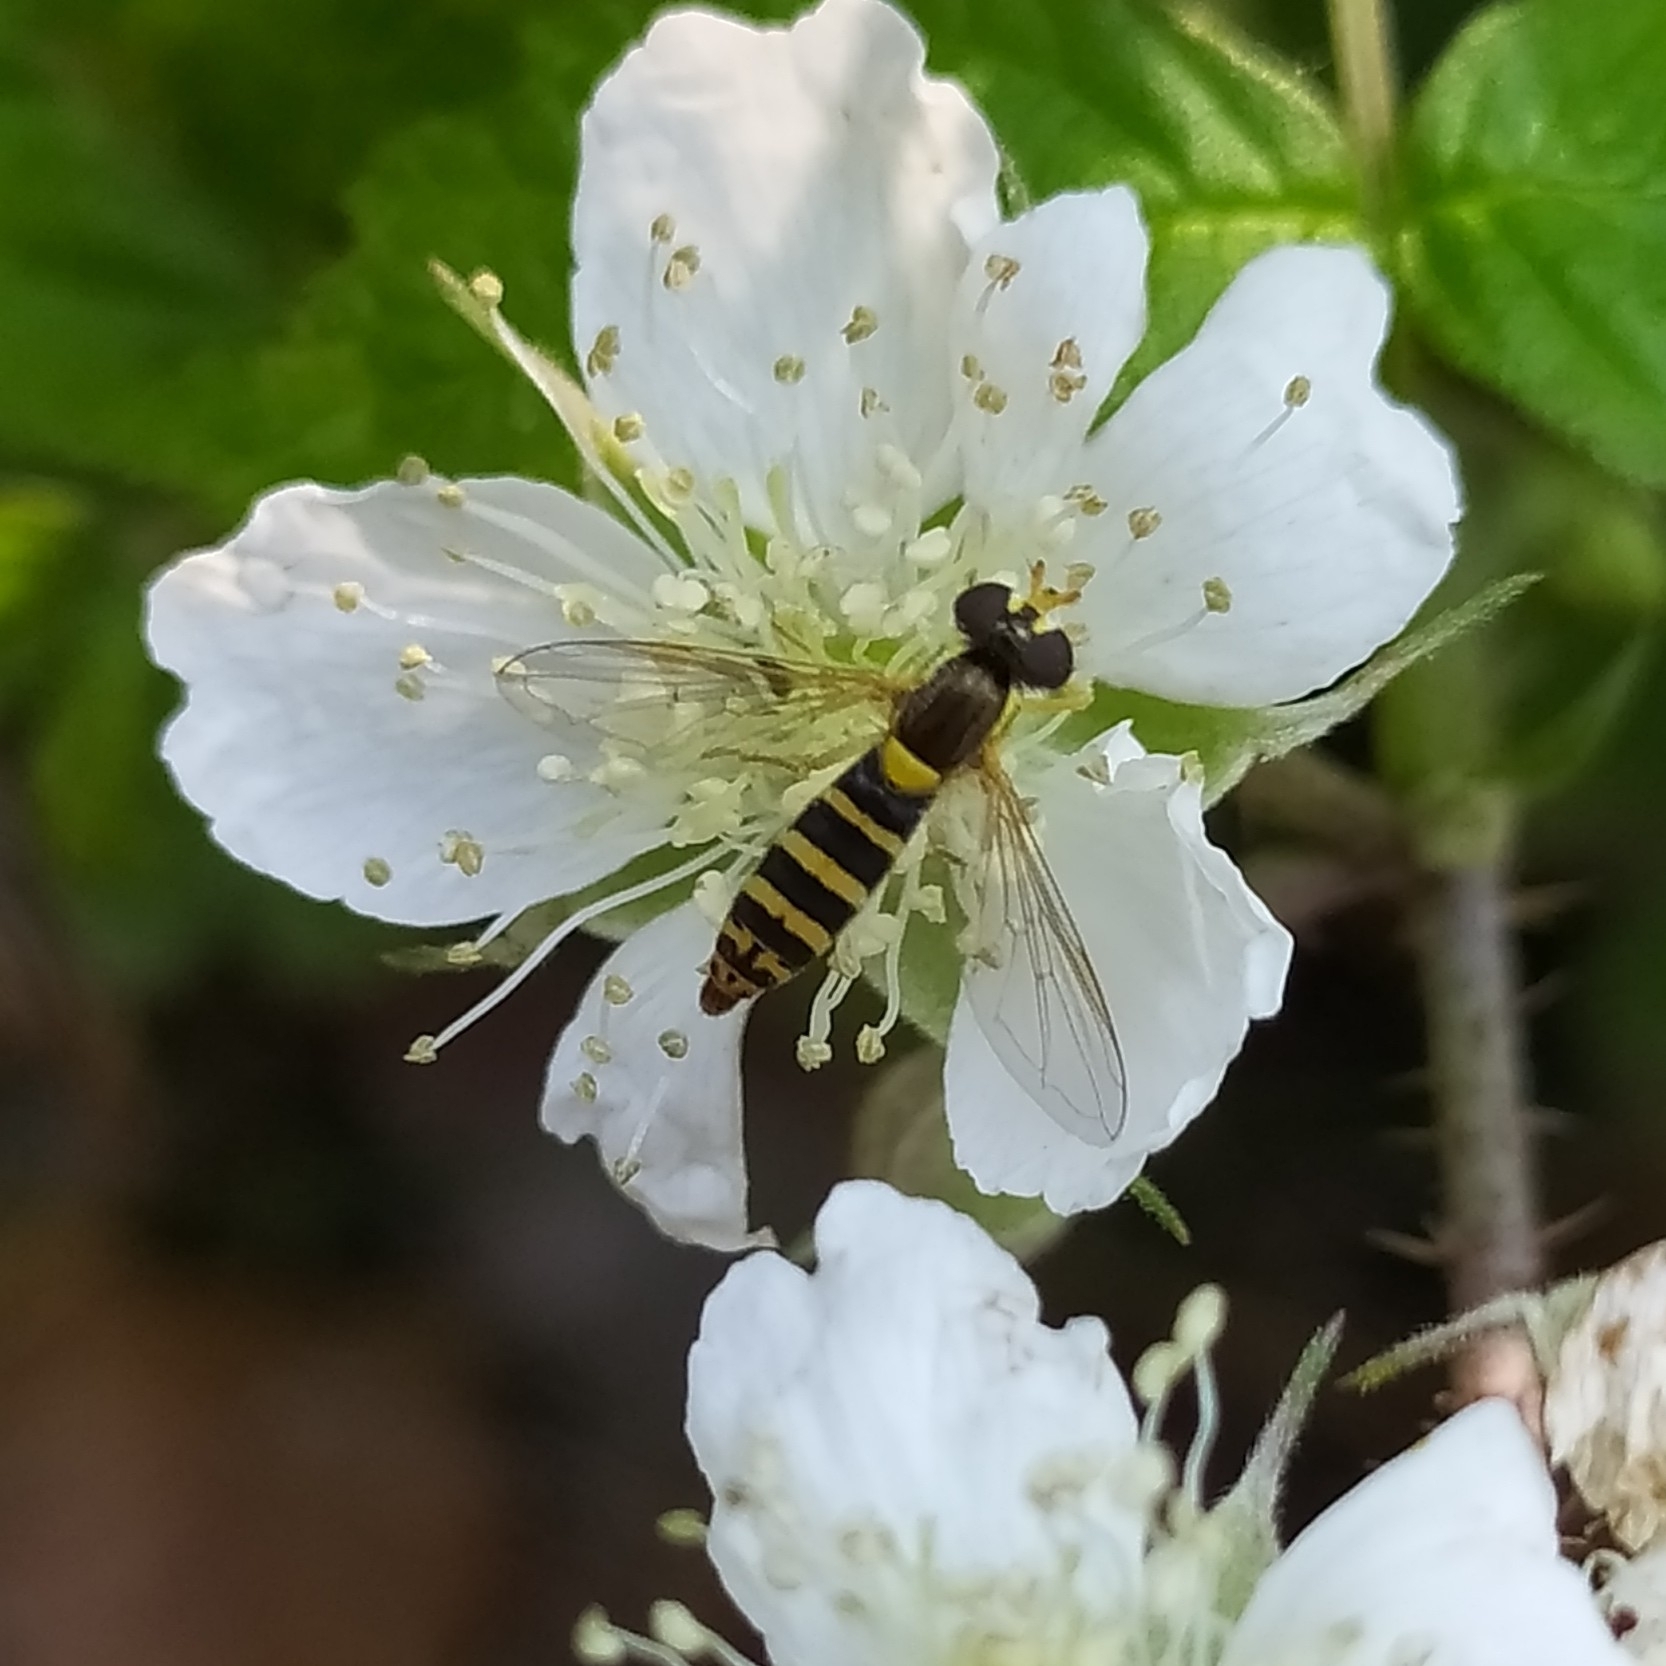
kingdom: Animalia
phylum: Arthropoda
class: Insecta
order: Diptera
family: Syrphidae
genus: Sphaerophoria
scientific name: Sphaerophoria
